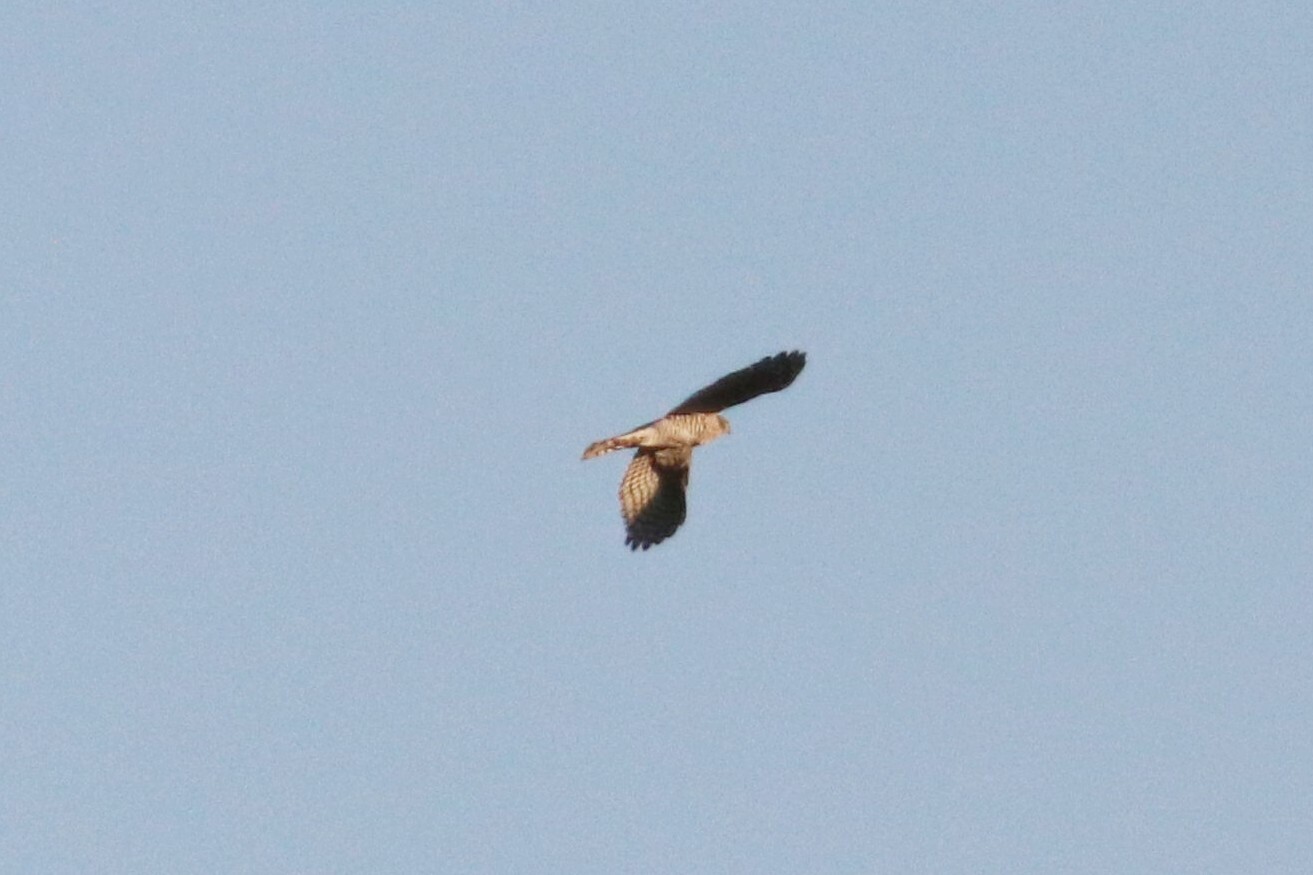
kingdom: Animalia
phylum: Chordata
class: Aves
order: Accipitriformes
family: Accipitridae
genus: Accipiter
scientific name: Accipiter nisus
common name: Eurasian sparrowhawk
